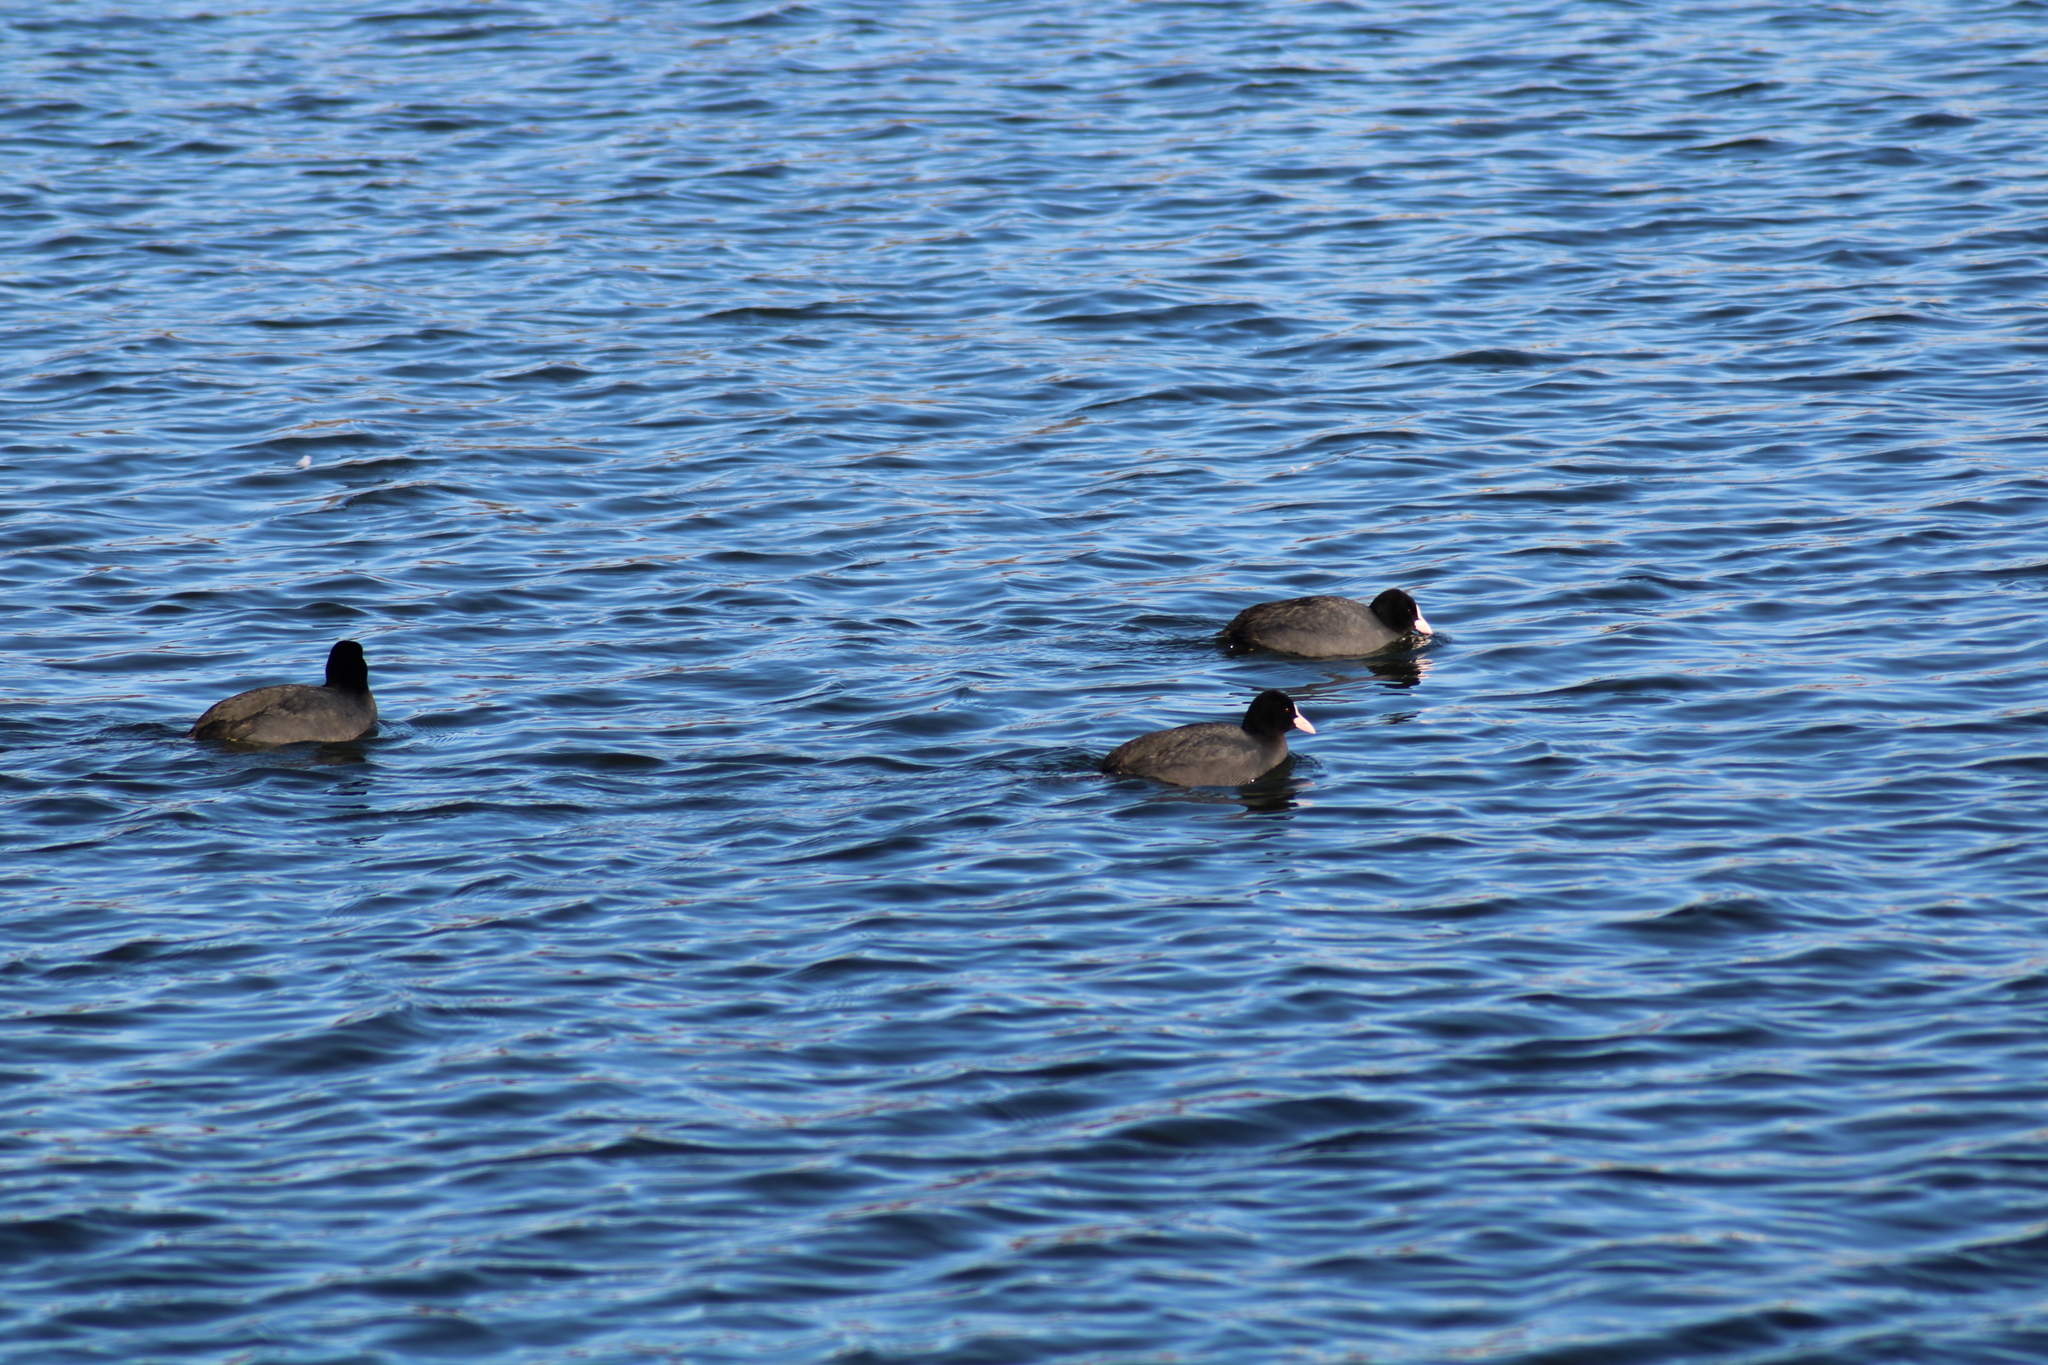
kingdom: Animalia
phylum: Chordata
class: Aves
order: Gruiformes
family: Rallidae
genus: Fulica
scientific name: Fulica atra
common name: Eurasian coot
